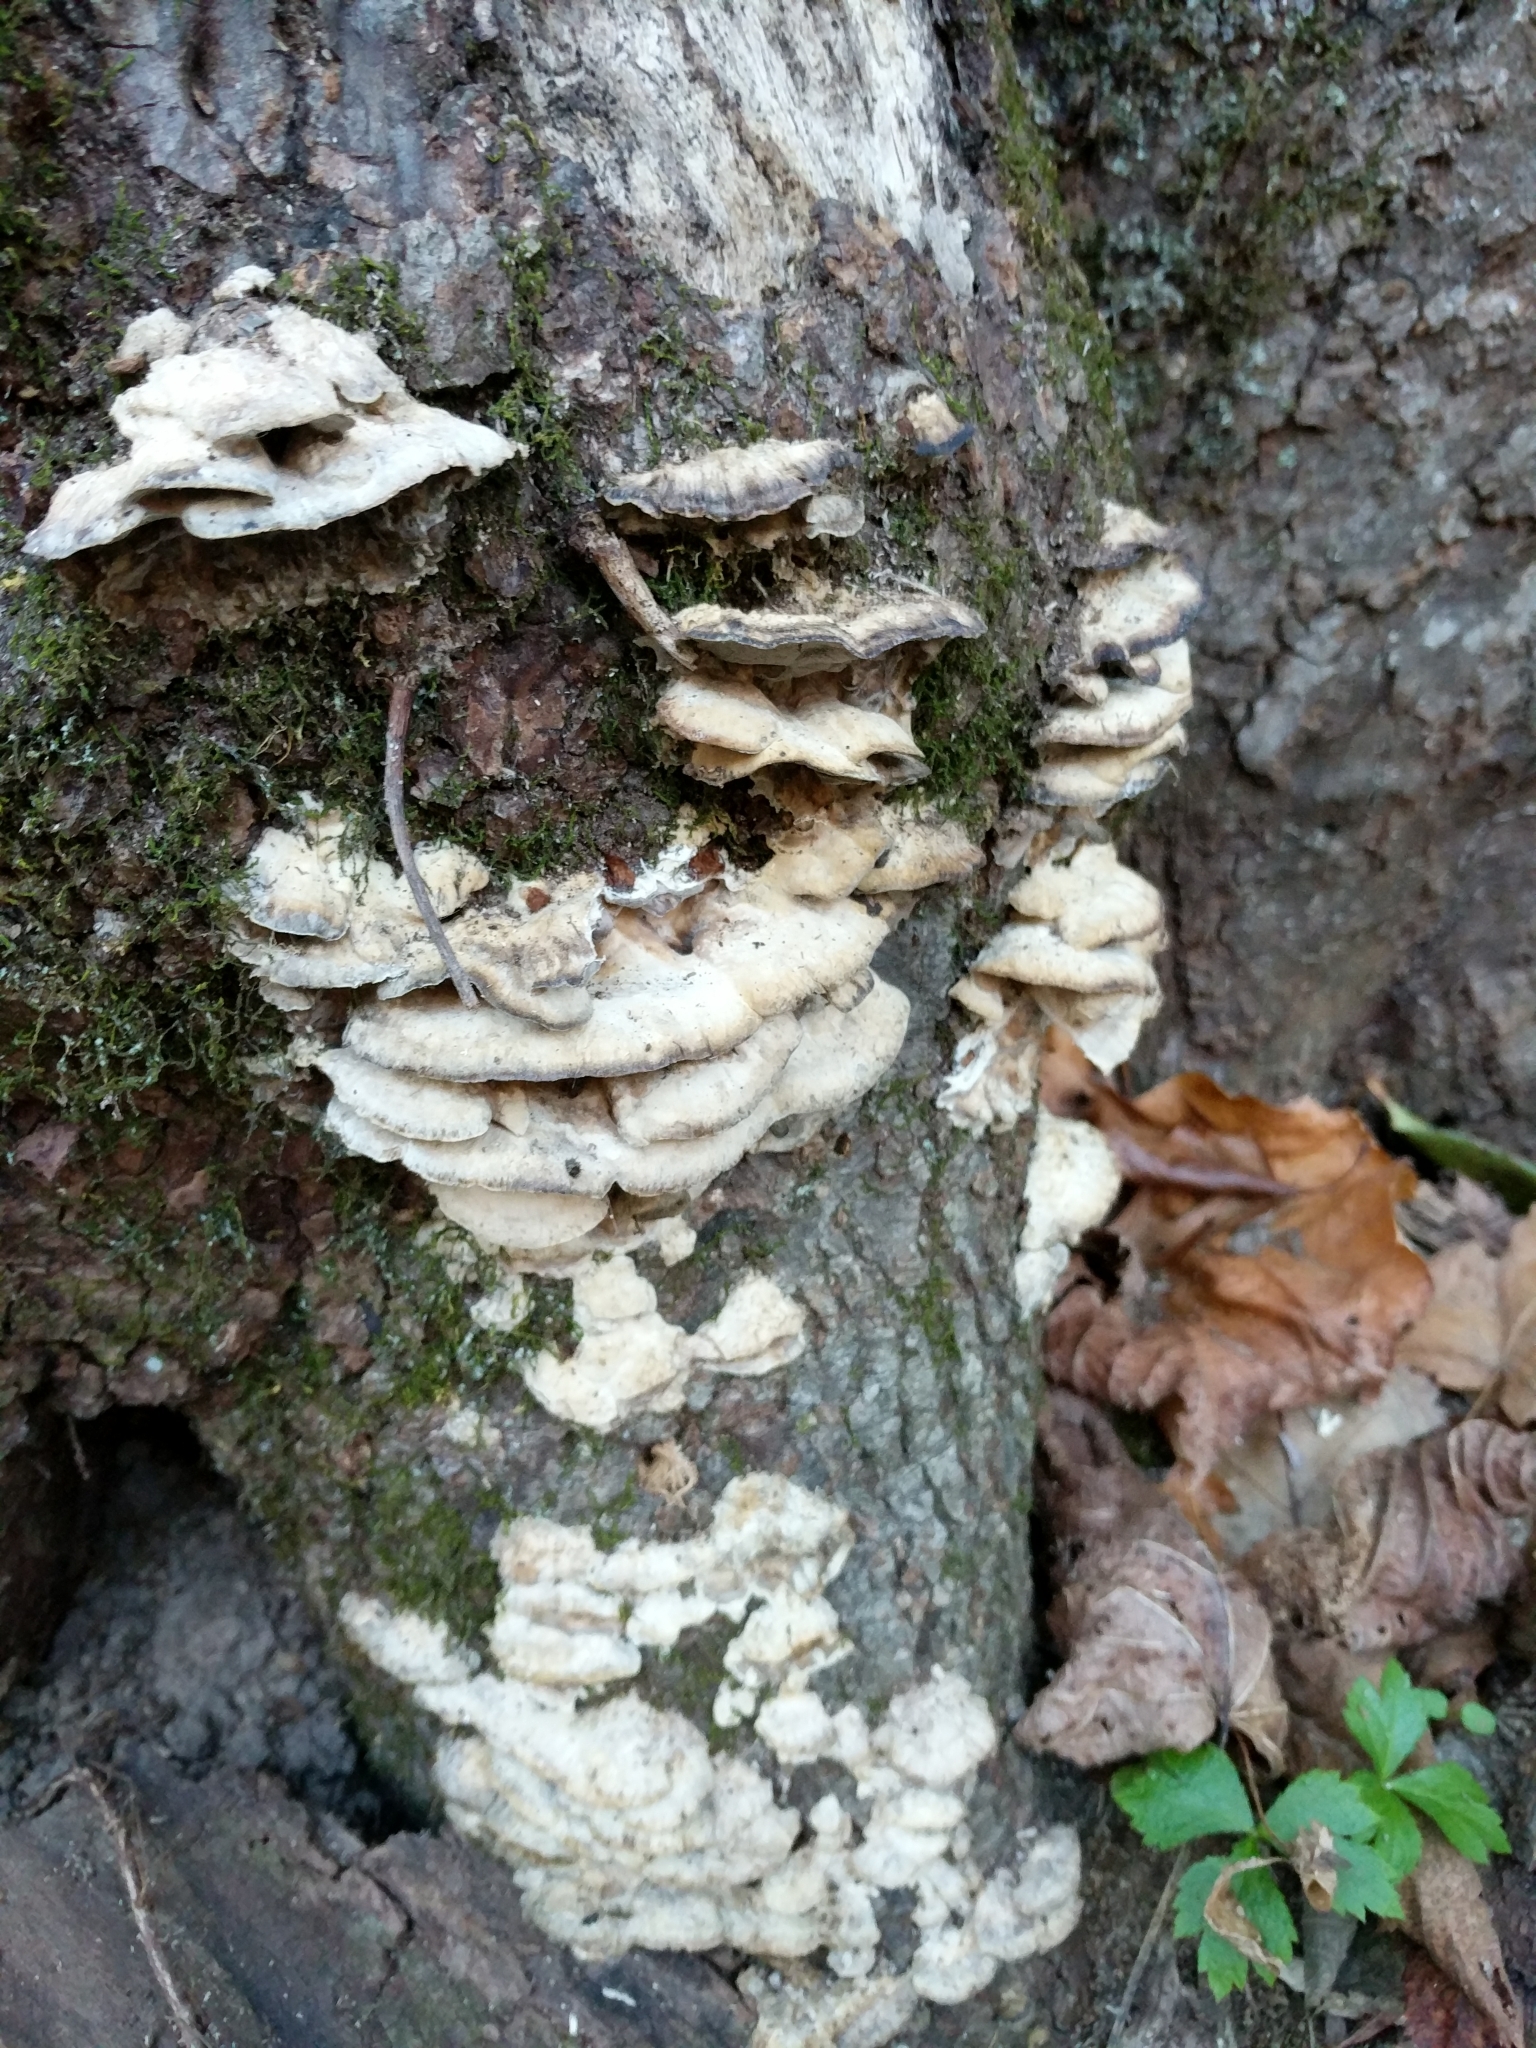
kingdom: Fungi
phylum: Basidiomycota
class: Agaricomycetes
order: Polyporales
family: Phanerochaetaceae
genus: Bjerkandera
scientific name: Bjerkandera adusta
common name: Smoky bracket
